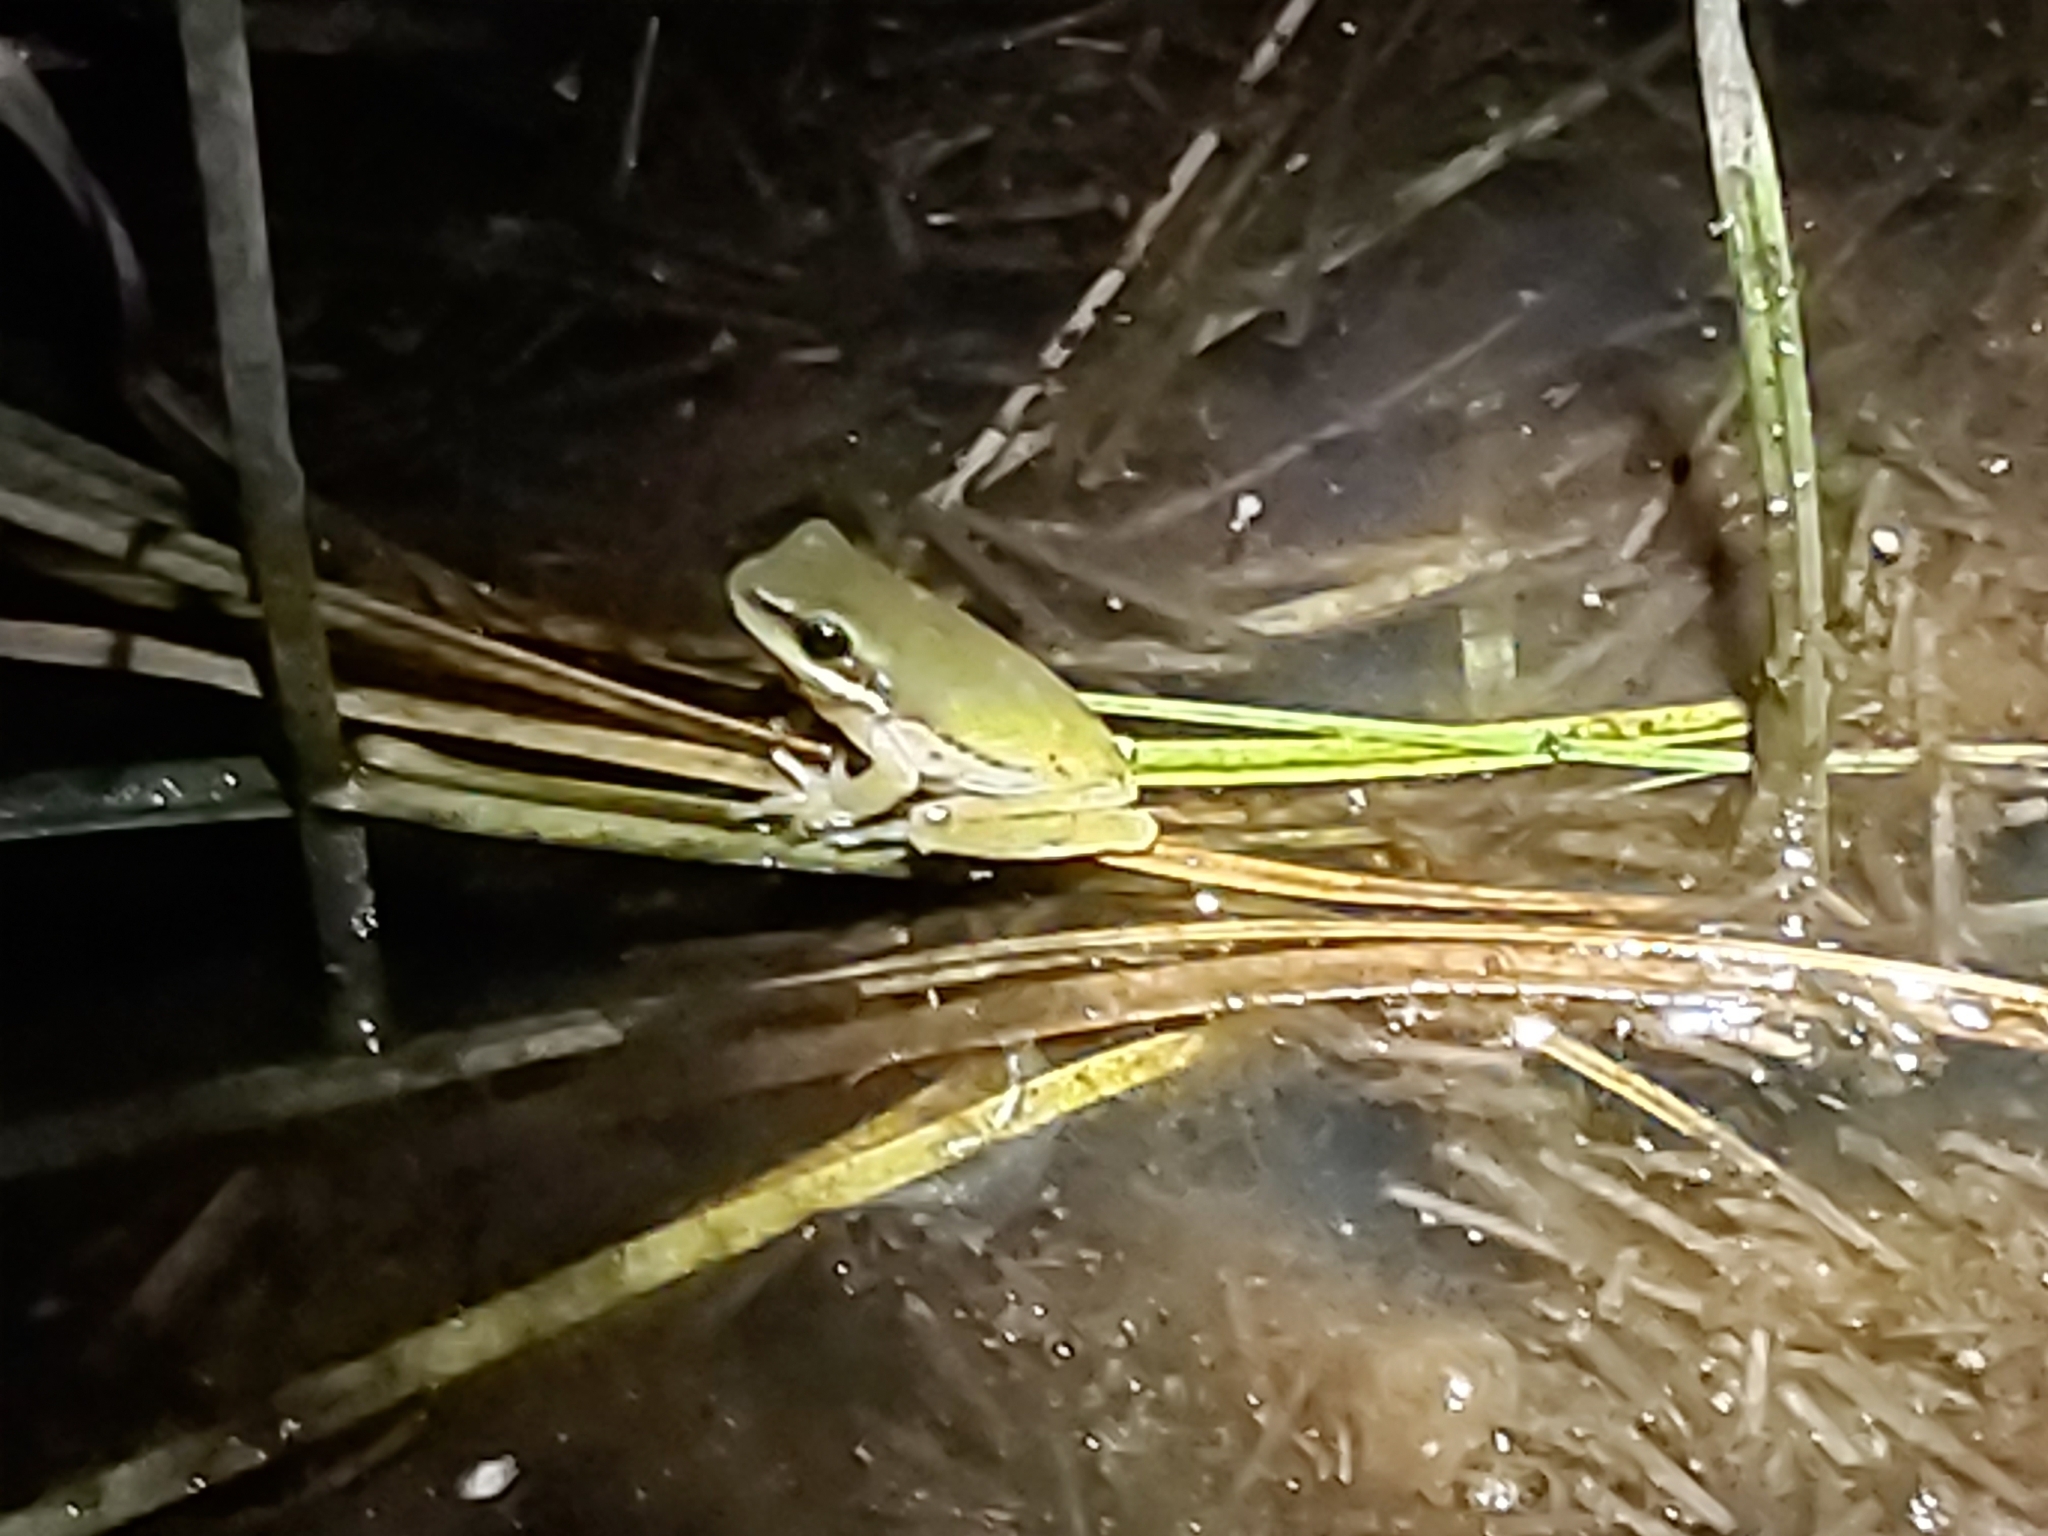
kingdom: Animalia
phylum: Chordata
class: Amphibia
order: Anura
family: Pelodryadidae
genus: Litoria
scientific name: Litoria fallax
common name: Eastern dwarf treefrog
